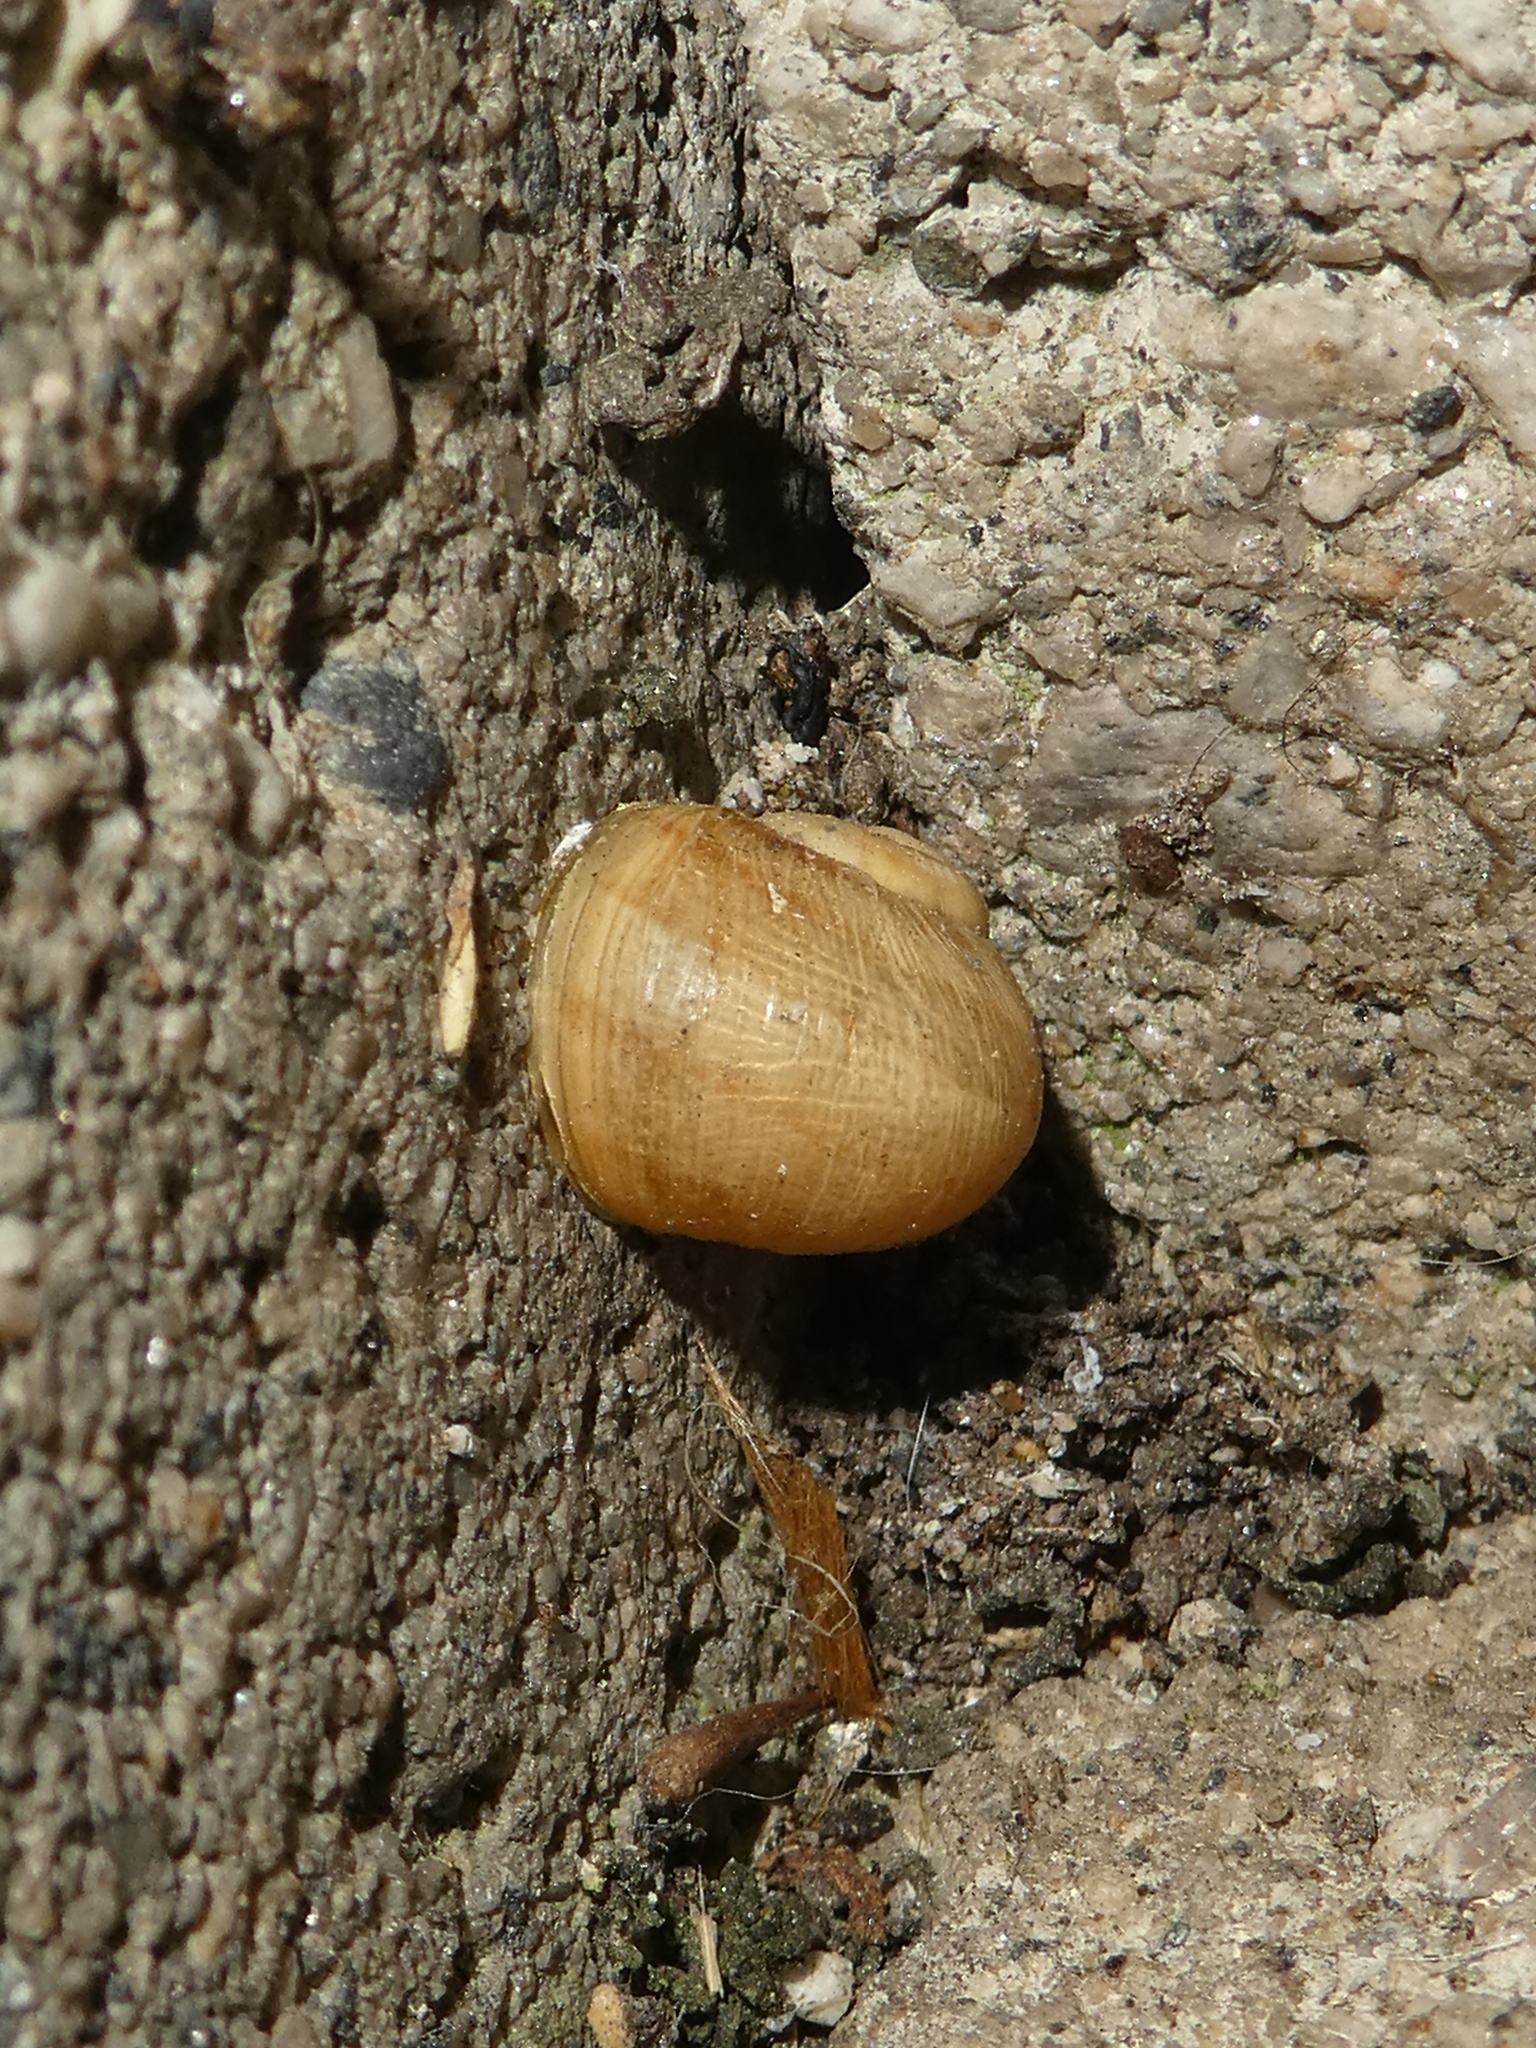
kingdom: Animalia
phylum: Mollusca
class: Gastropoda
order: Stylommatophora
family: Helicidae
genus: Cornu
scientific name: Cornu aspersum
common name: Brown garden snail
